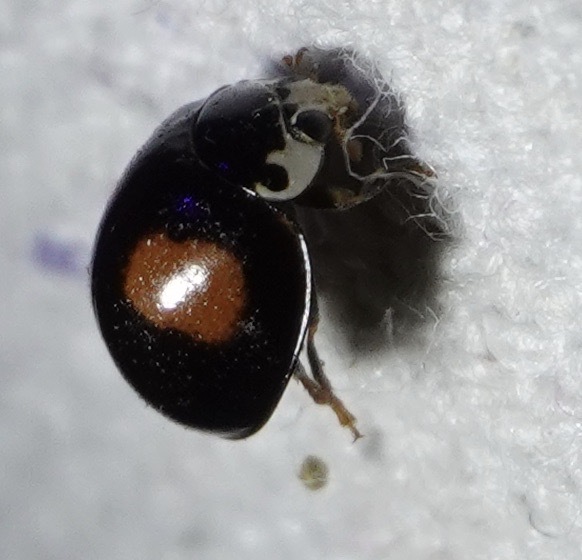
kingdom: Animalia
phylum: Arthropoda
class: Insecta
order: Coleoptera
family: Coccinellidae
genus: Olla
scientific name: Olla v-nigrum
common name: Ashy gray lady beetle
